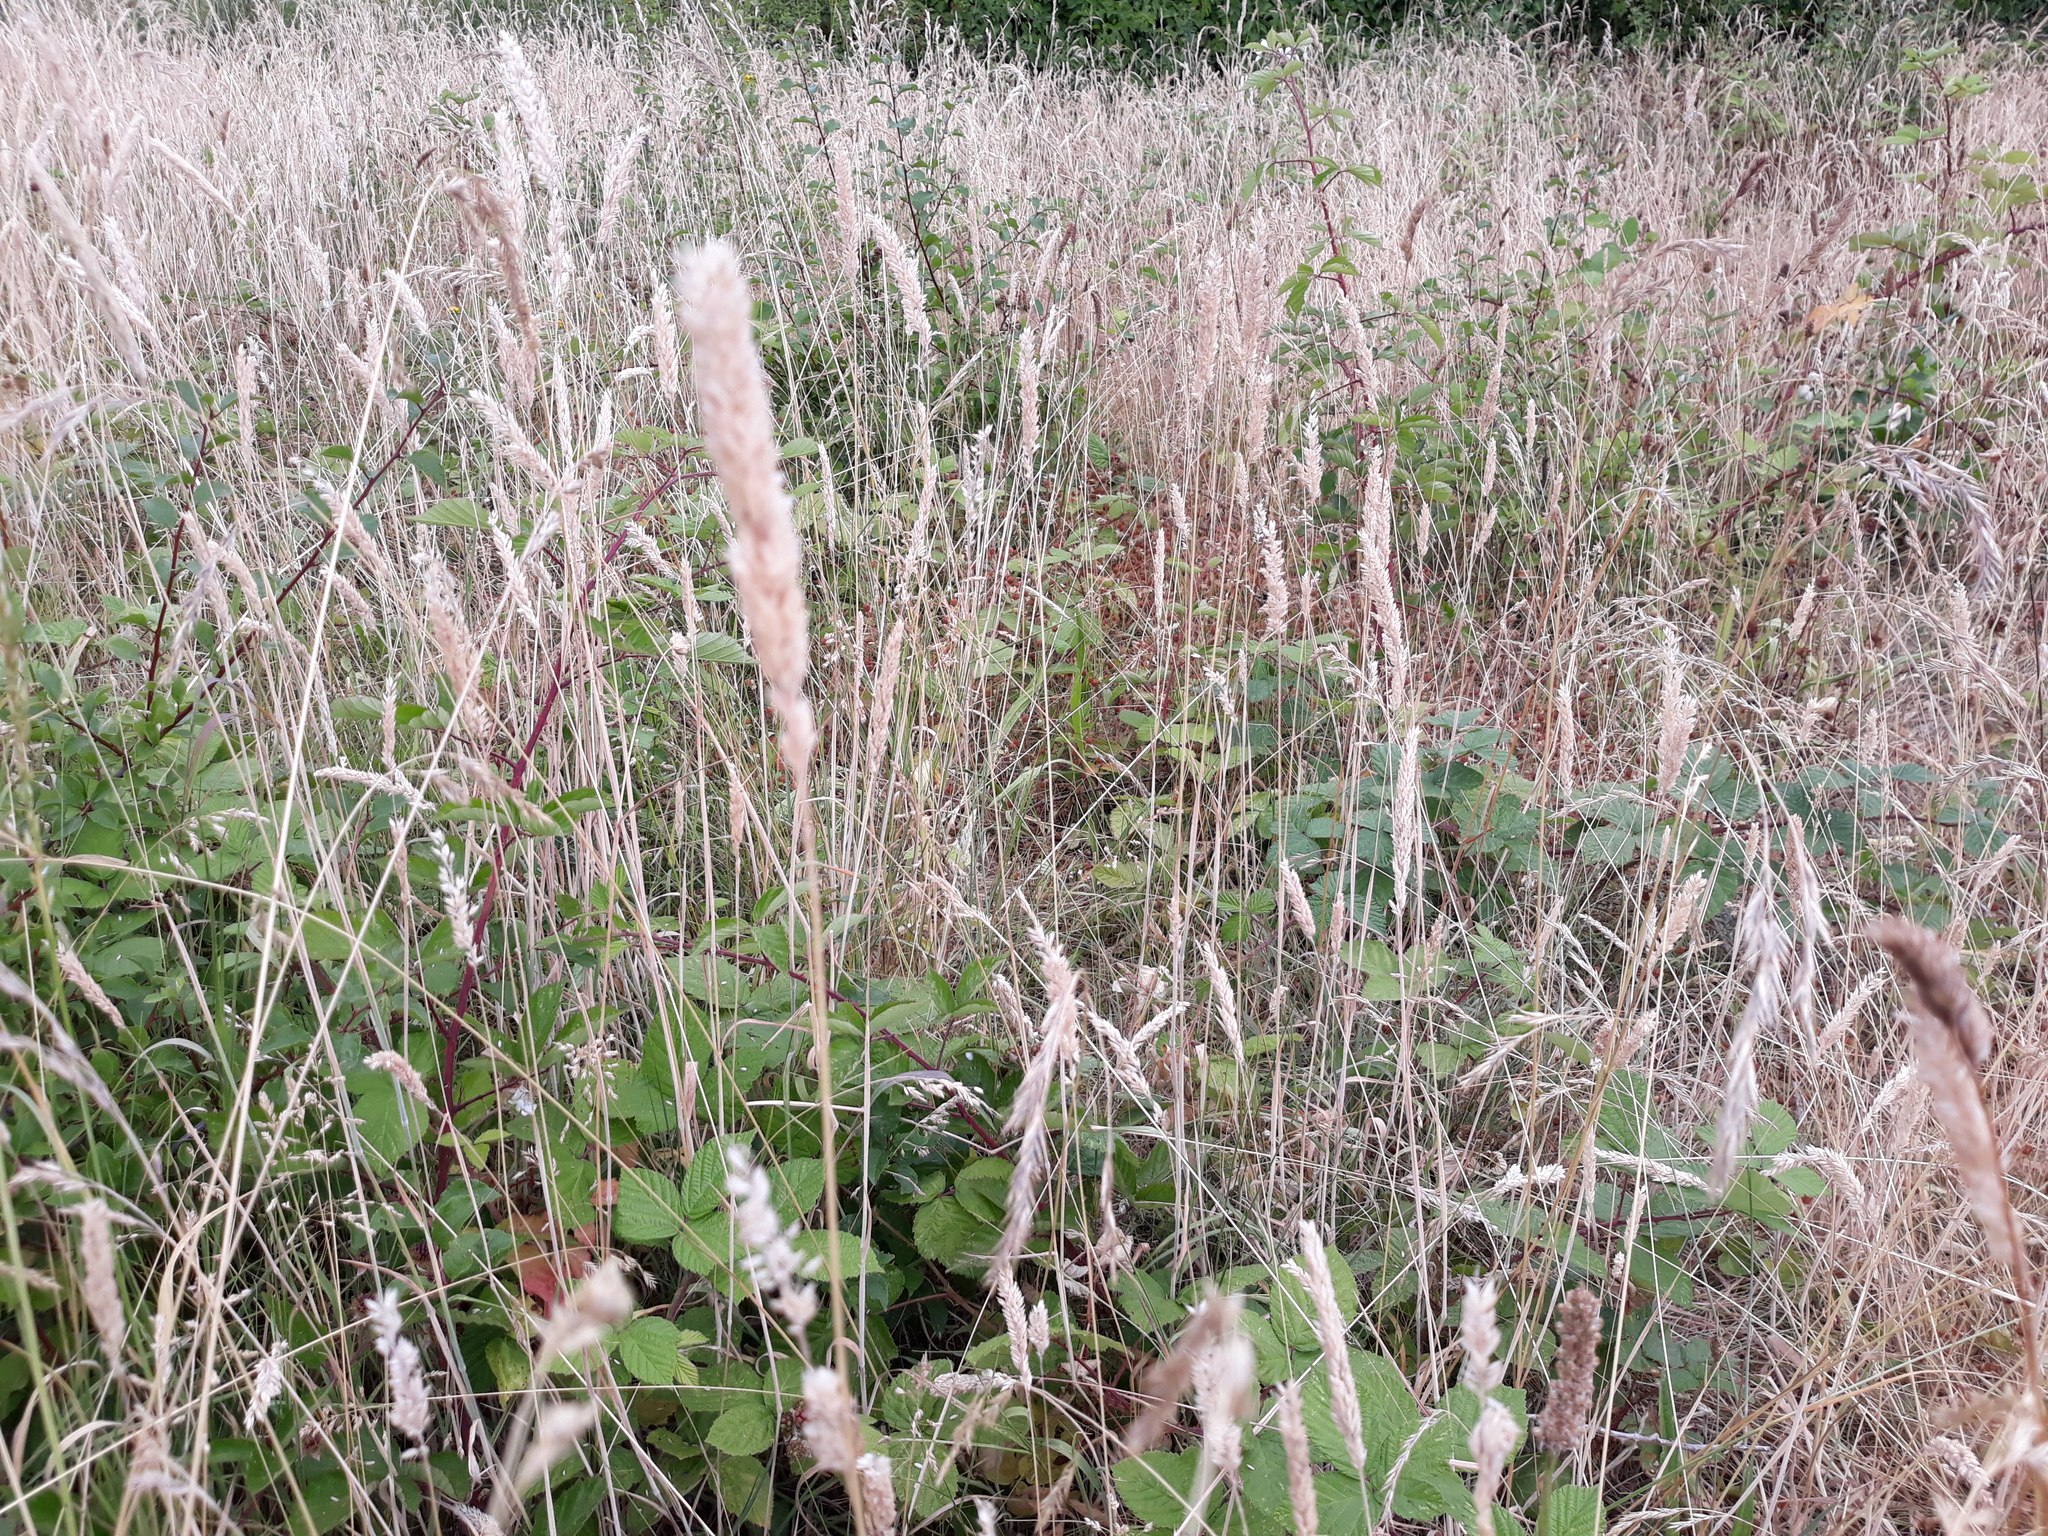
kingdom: Plantae
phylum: Tracheophyta
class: Liliopsida
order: Poales
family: Poaceae
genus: Holcus
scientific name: Holcus lanatus
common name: Yorkshire-fog
